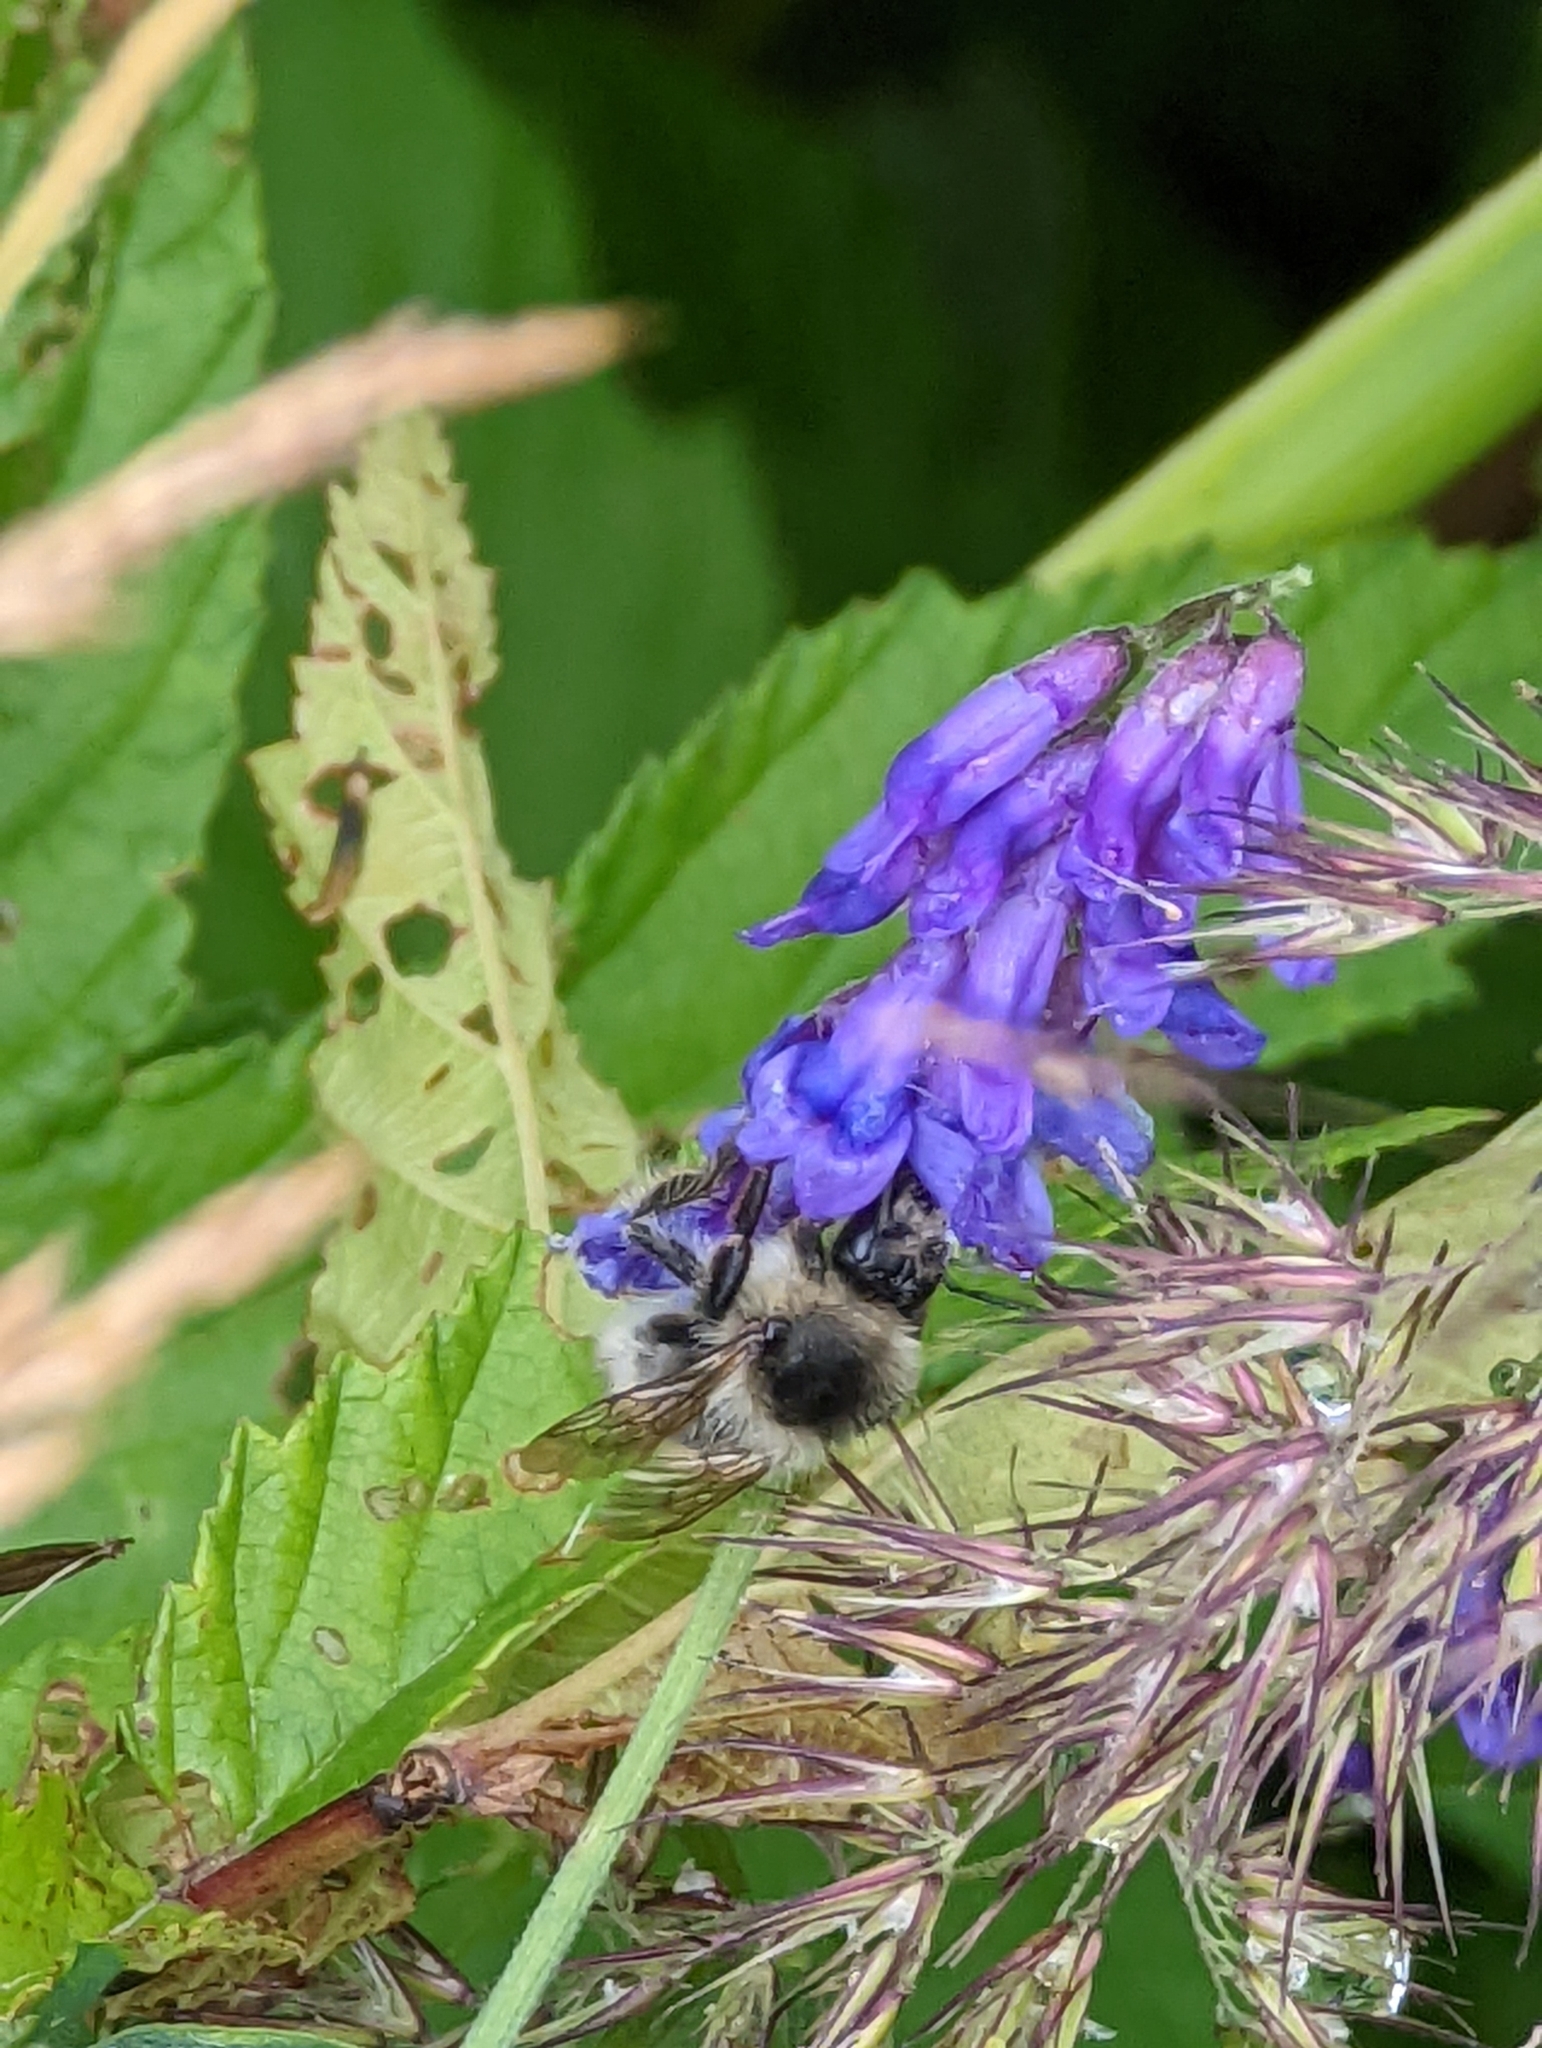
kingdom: Animalia
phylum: Arthropoda
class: Insecta
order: Hymenoptera
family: Apidae
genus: Bombus
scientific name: Bombus veteranus
